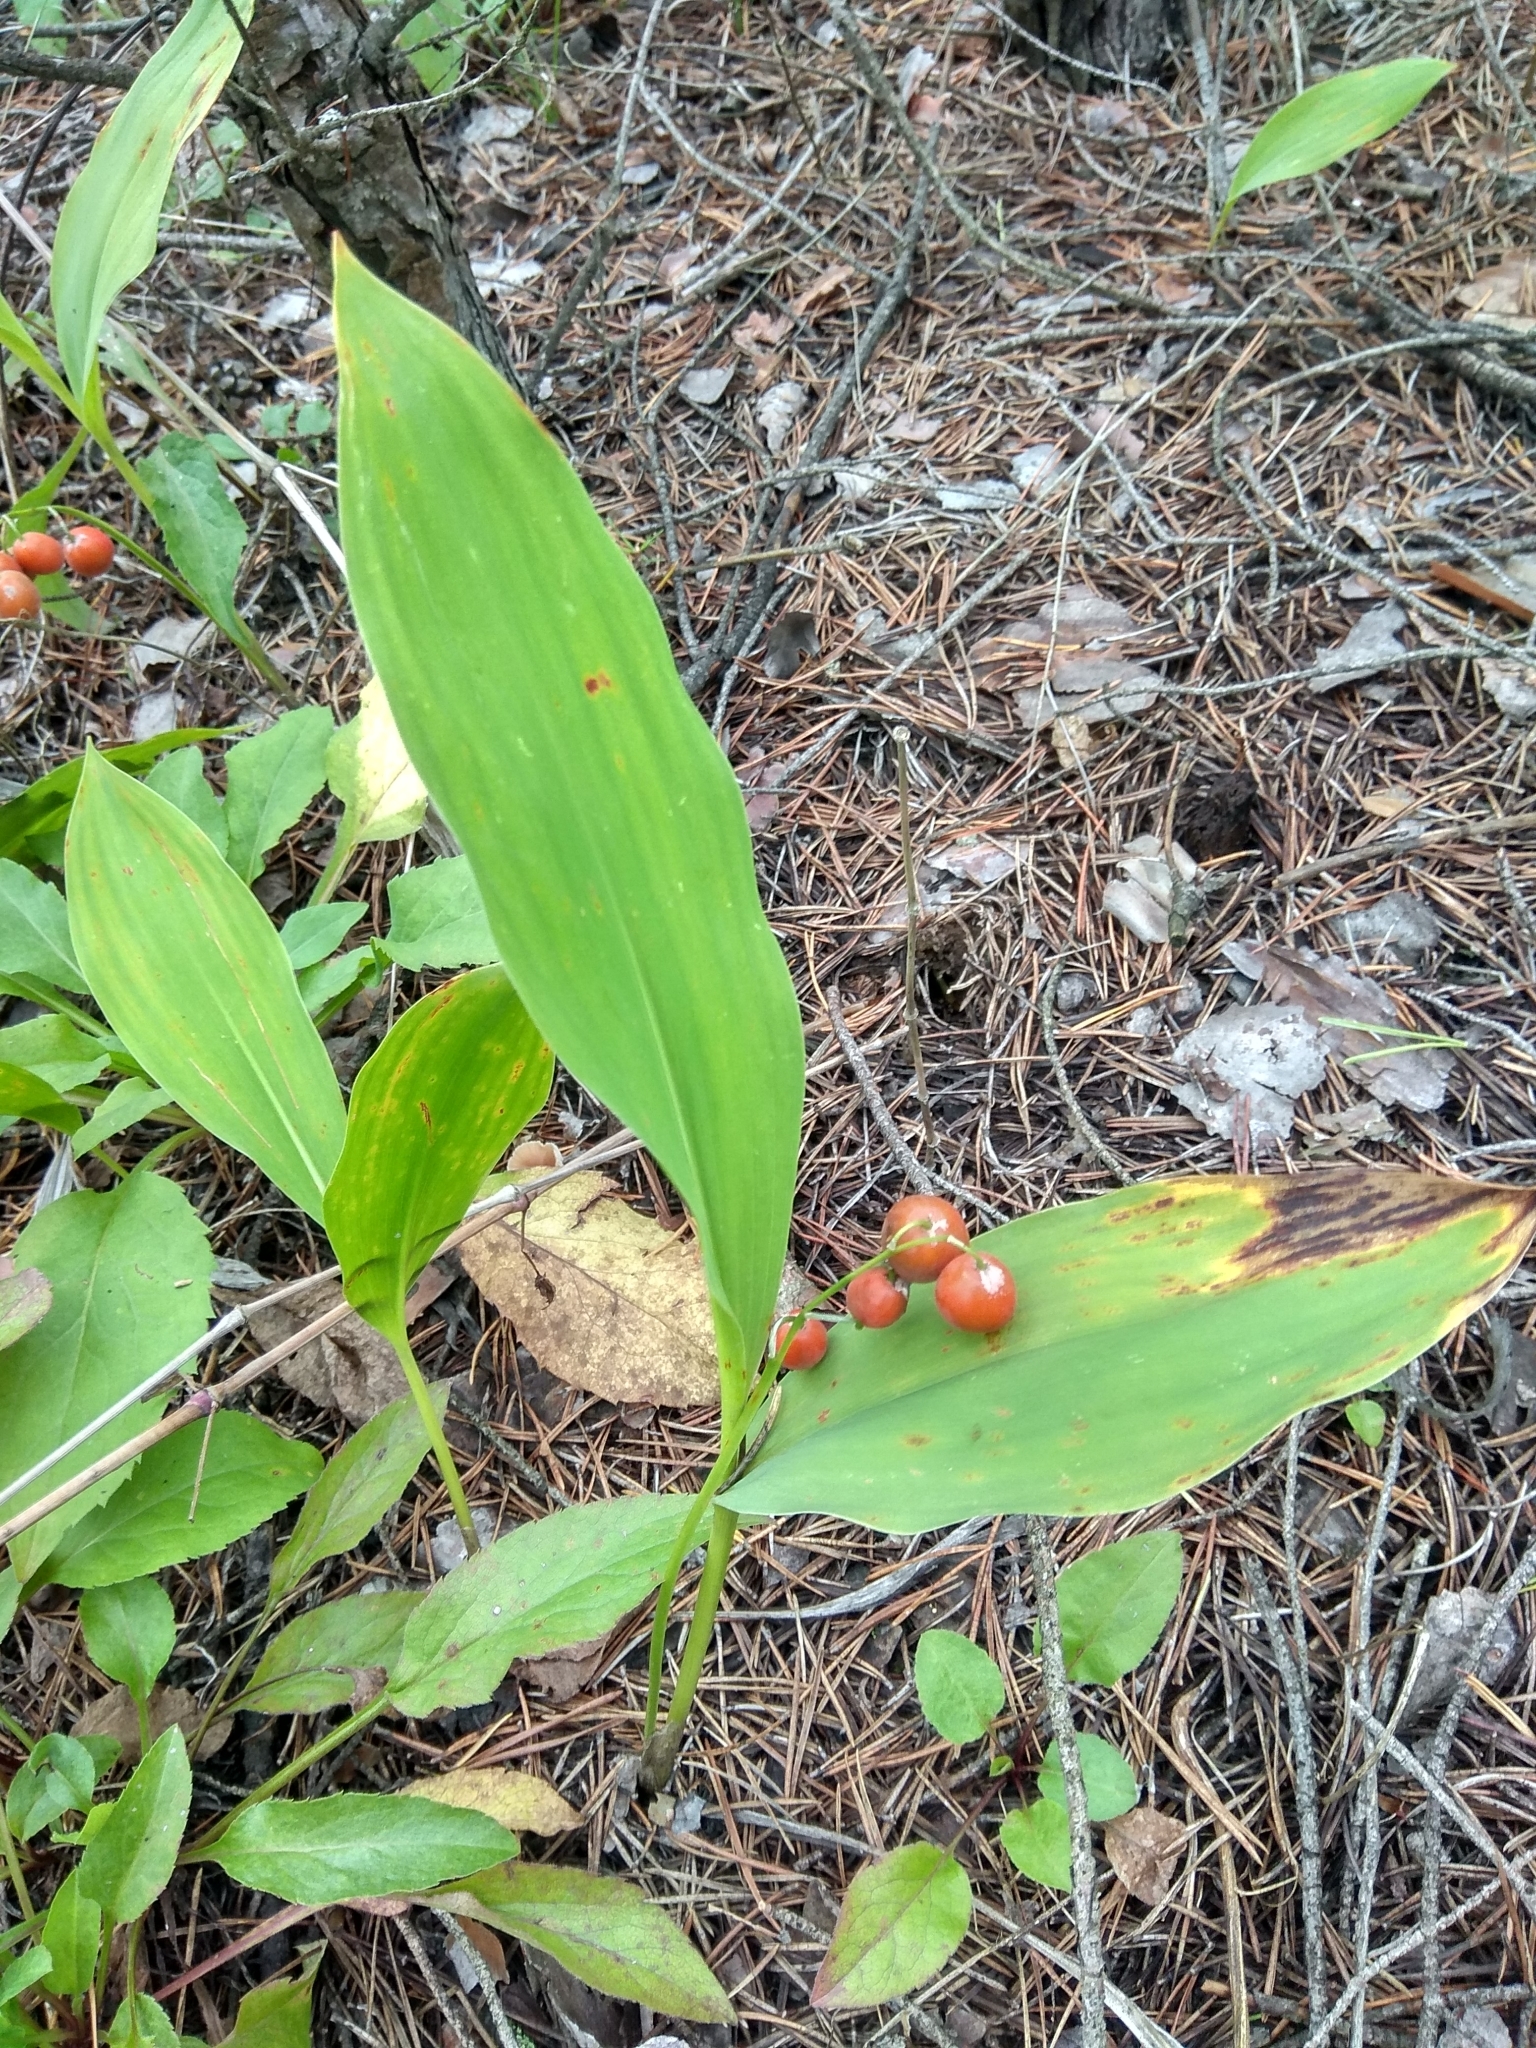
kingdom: Plantae
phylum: Tracheophyta
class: Liliopsida
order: Asparagales
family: Asparagaceae
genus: Convallaria
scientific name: Convallaria majalis
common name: Lily-of-the-valley
